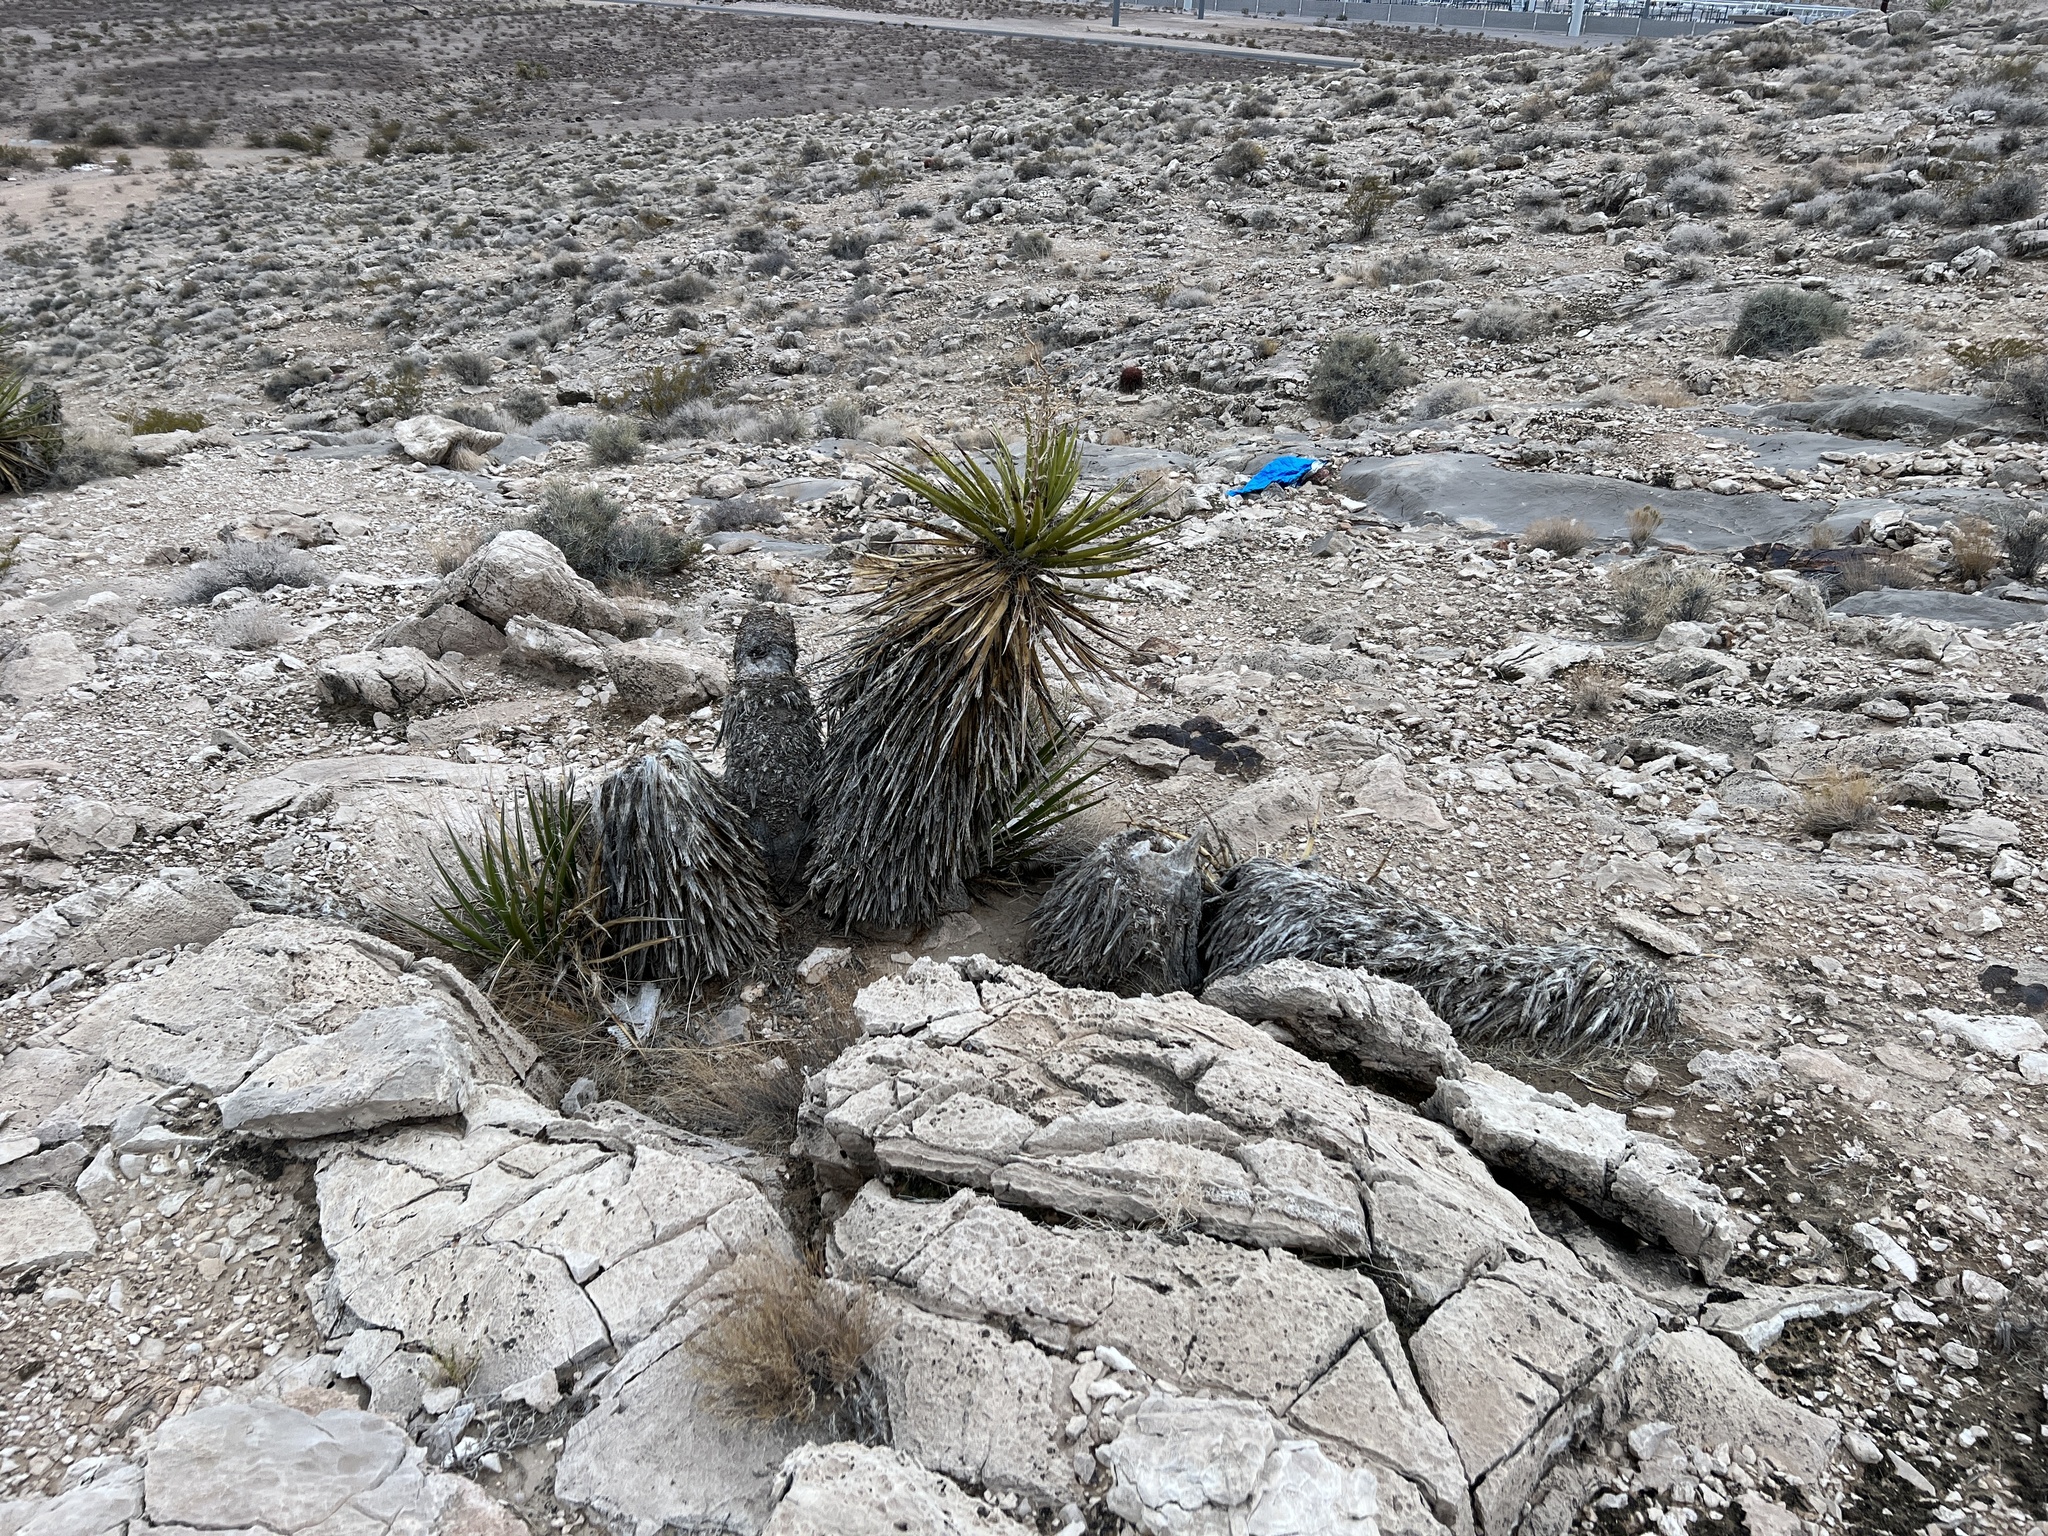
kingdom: Plantae
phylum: Tracheophyta
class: Liliopsida
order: Asparagales
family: Asparagaceae
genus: Yucca
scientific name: Yucca schidigera
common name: Mojave yucca
